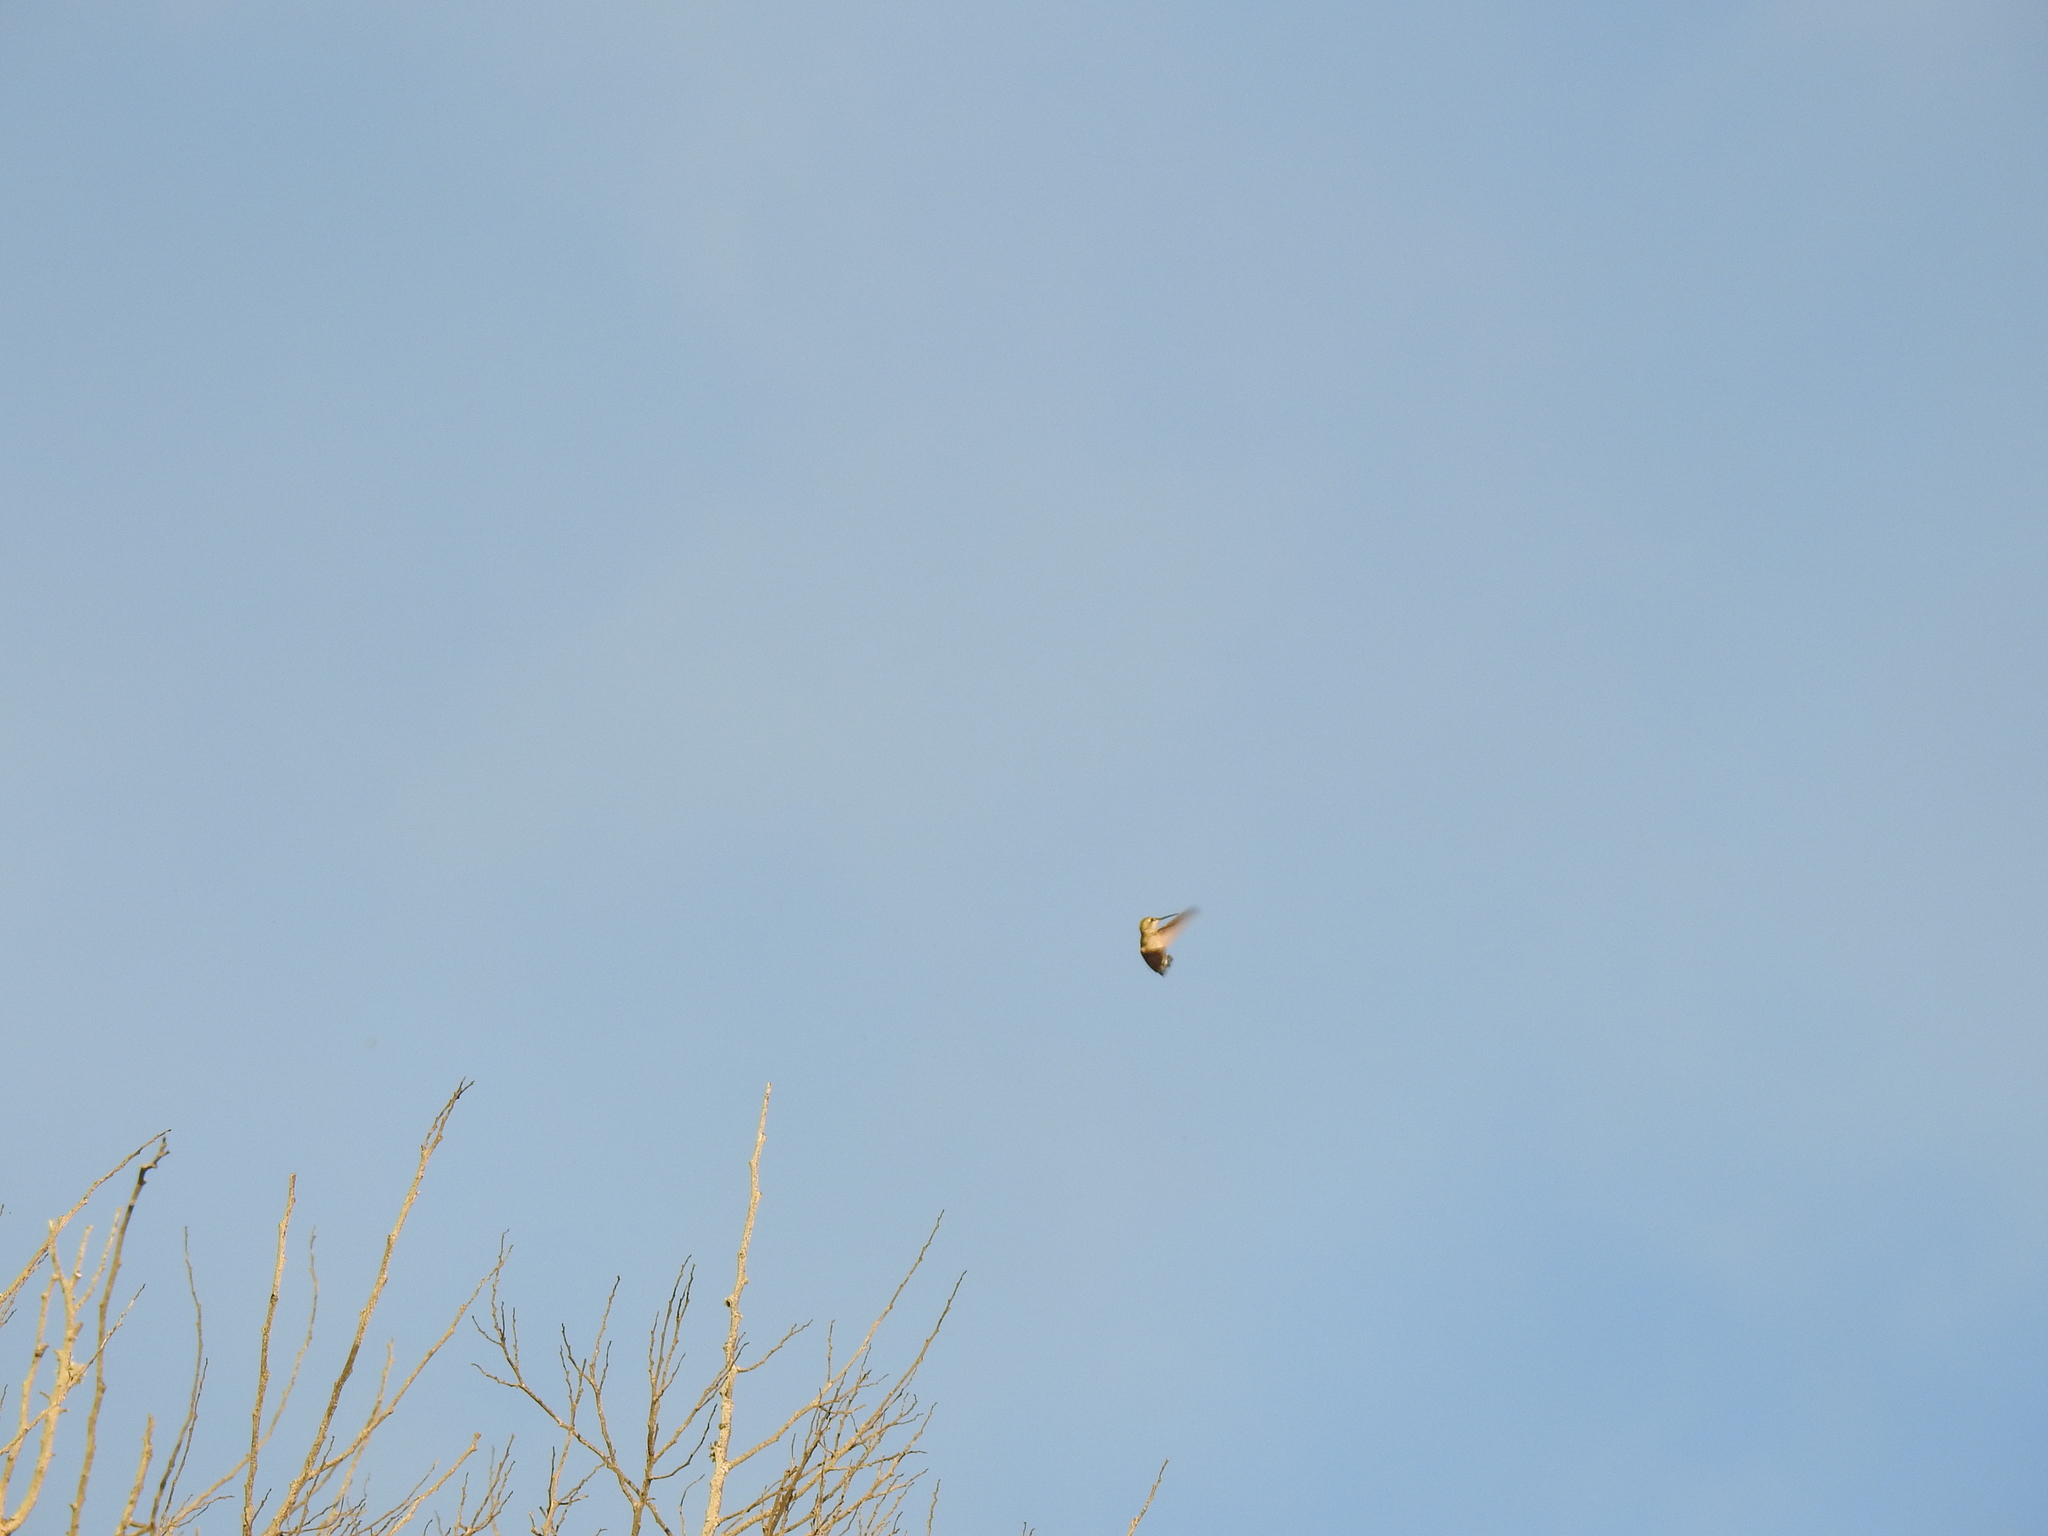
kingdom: Animalia
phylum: Chordata
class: Aves
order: Apodiformes
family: Trochilidae
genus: Calypte
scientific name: Calypte anna
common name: Anna's hummingbird
